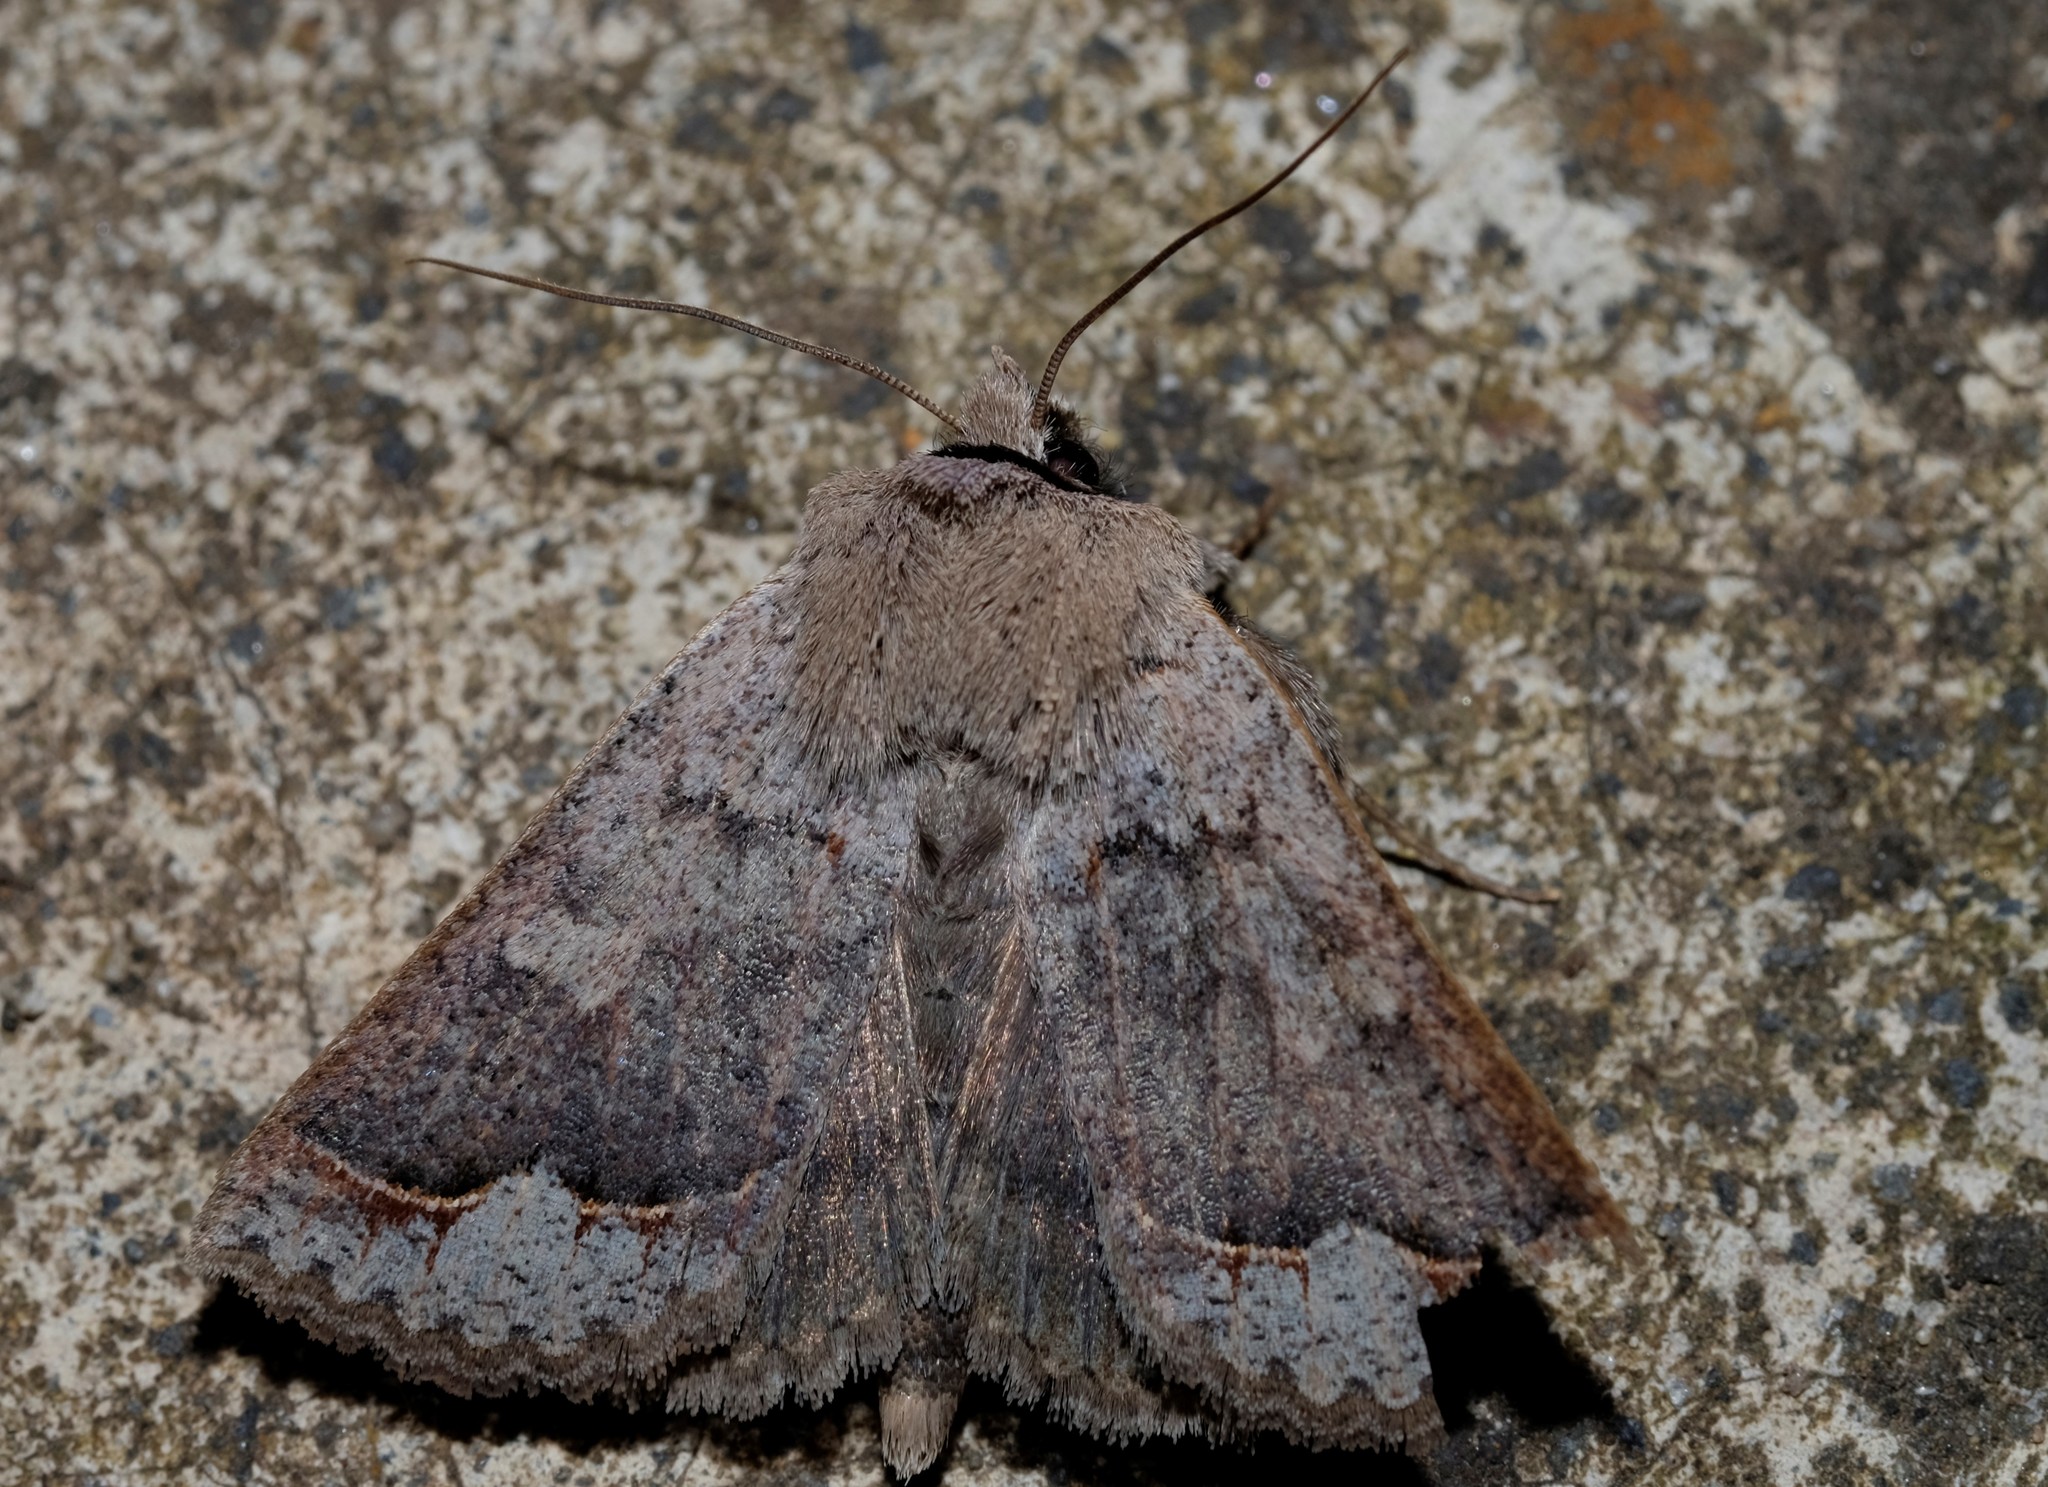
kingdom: Animalia
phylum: Arthropoda
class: Insecta
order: Lepidoptera
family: Erebidae
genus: Pantydia
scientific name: Pantydia diemeni
